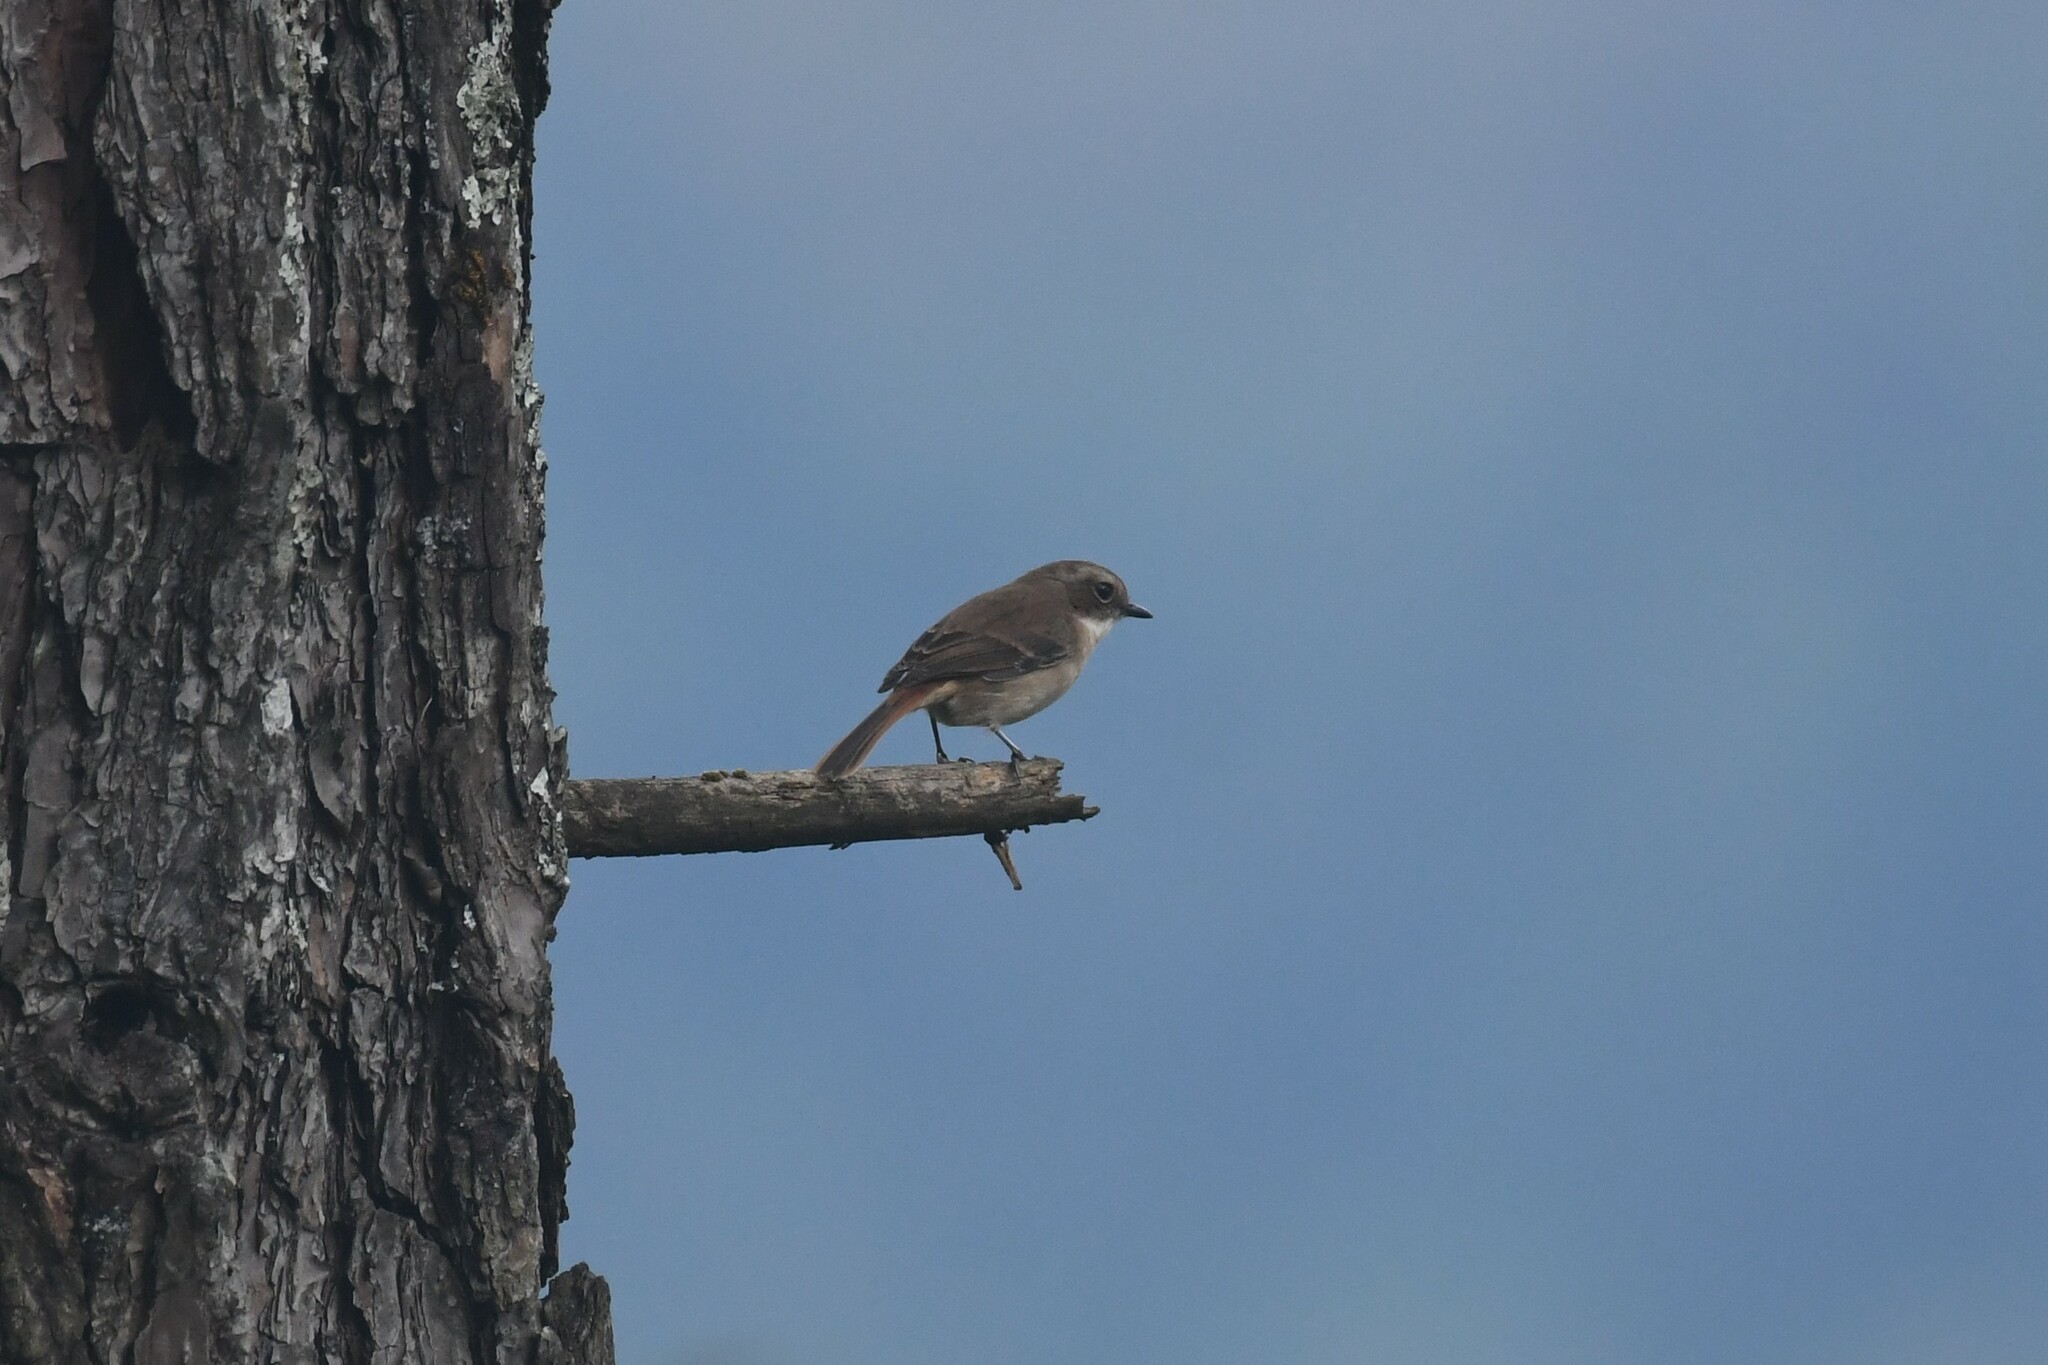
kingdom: Animalia
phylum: Chordata
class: Aves
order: Passeriformes
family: Muscicapidae
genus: Saxicola
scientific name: Saxicola ferreus
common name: Grey bush chat
